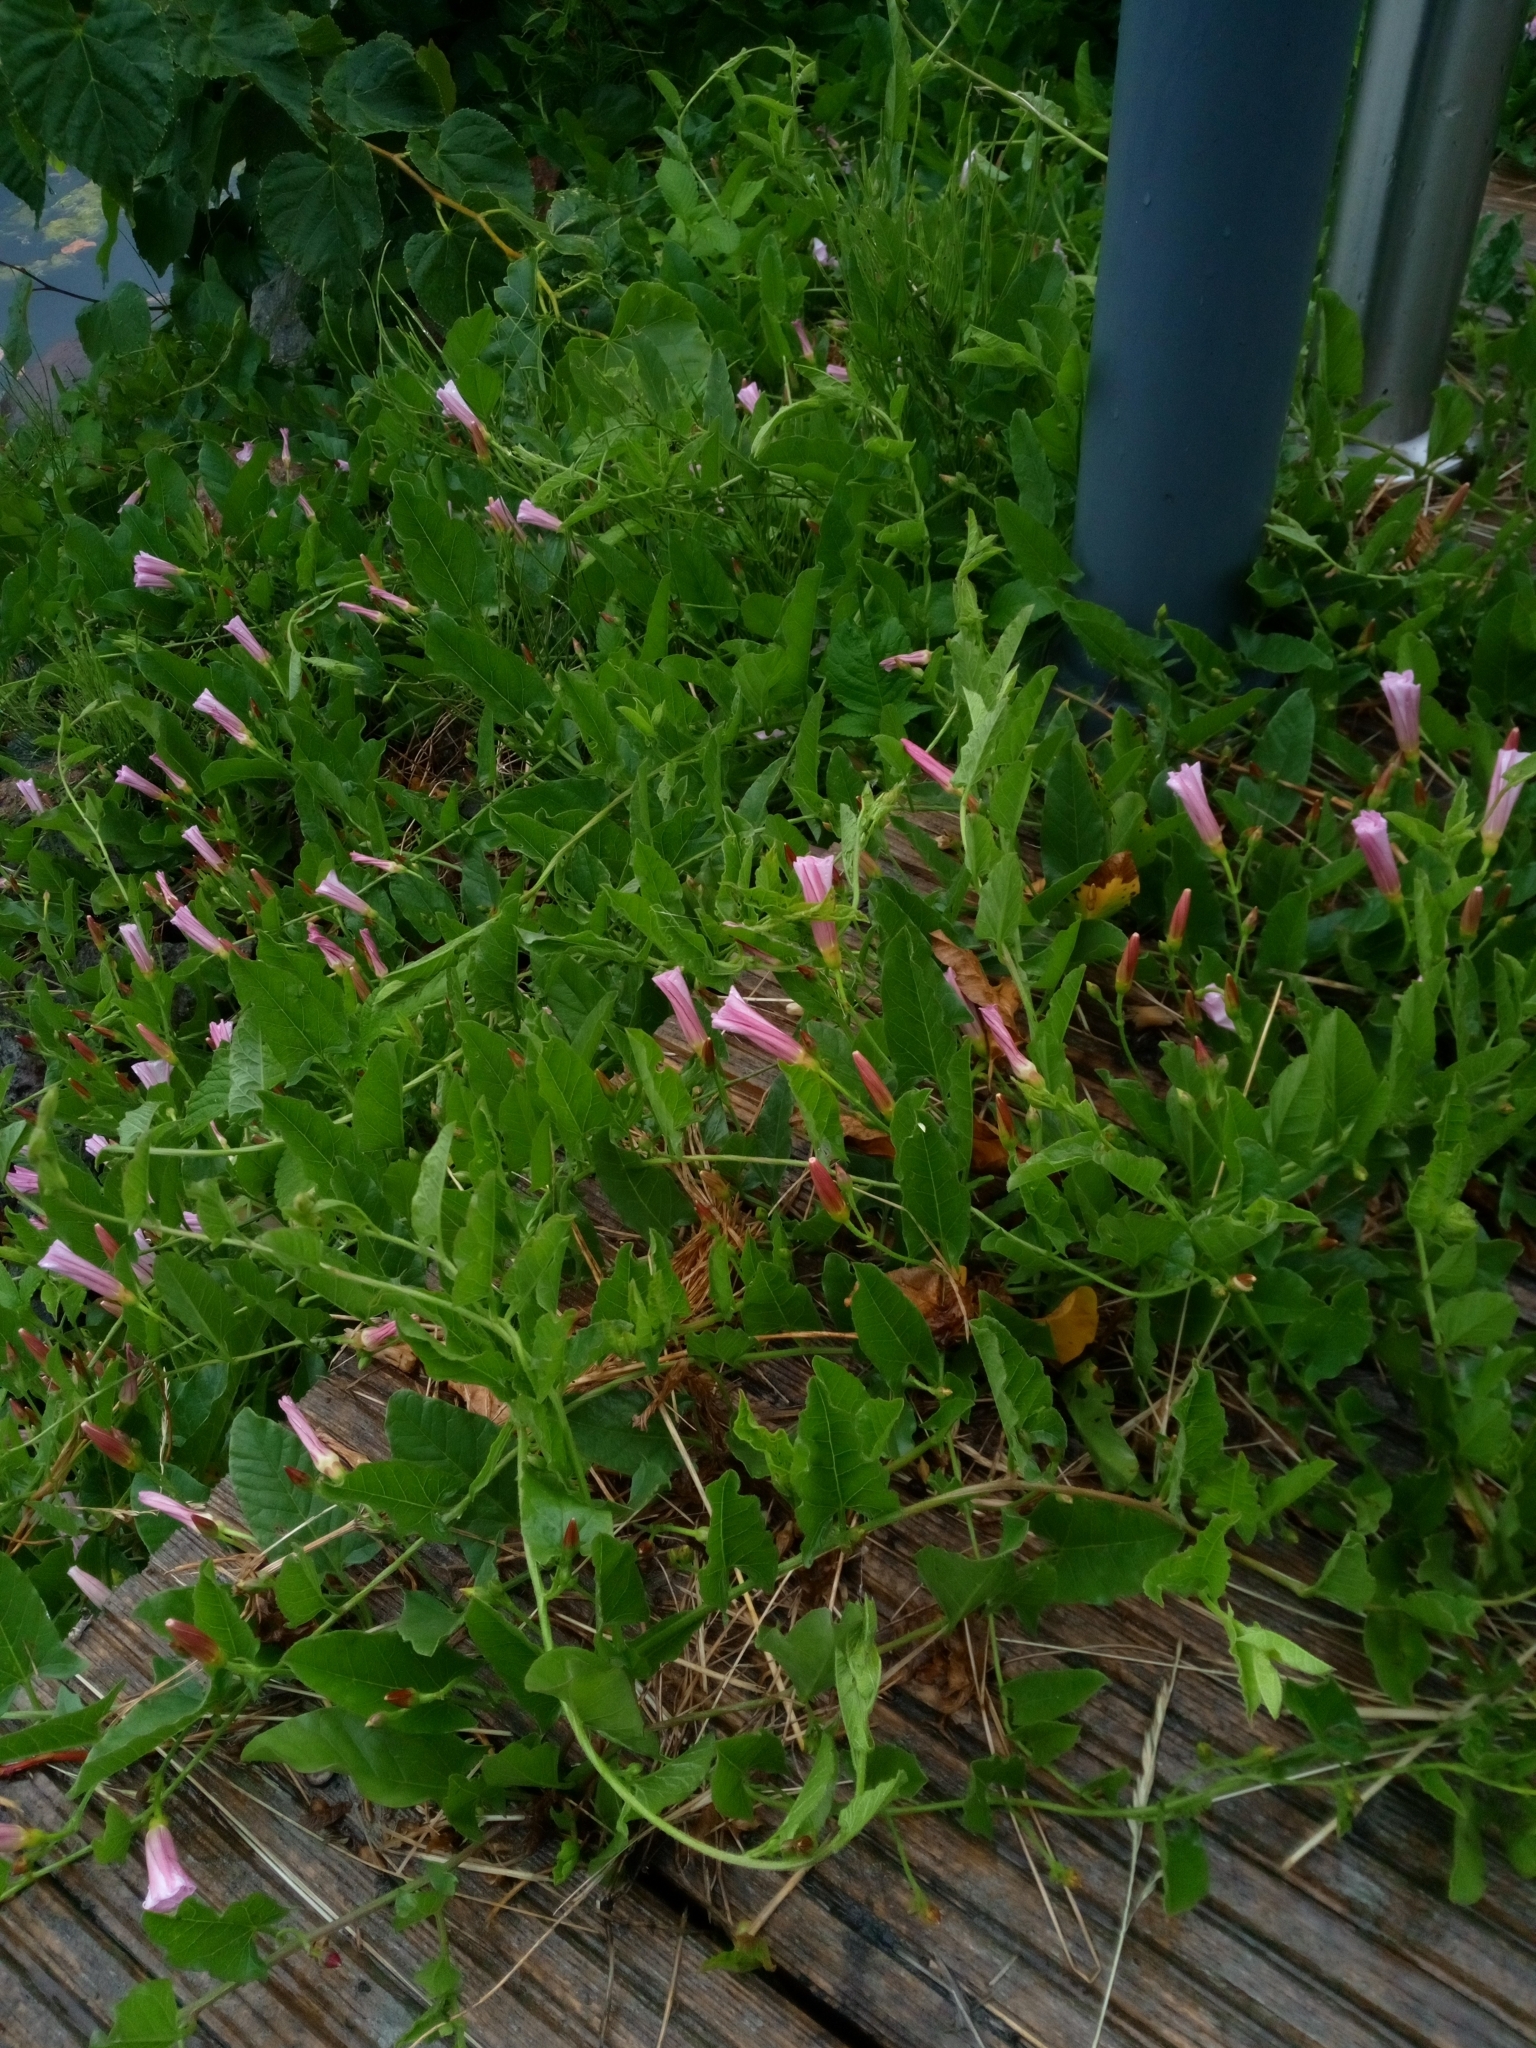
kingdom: Plantae
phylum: Tracheophyta
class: Magnoliopsida
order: Solanales
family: Convolvulaceae
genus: Convolvulus
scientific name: Convolvulus arvensis
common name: Field bindweed
